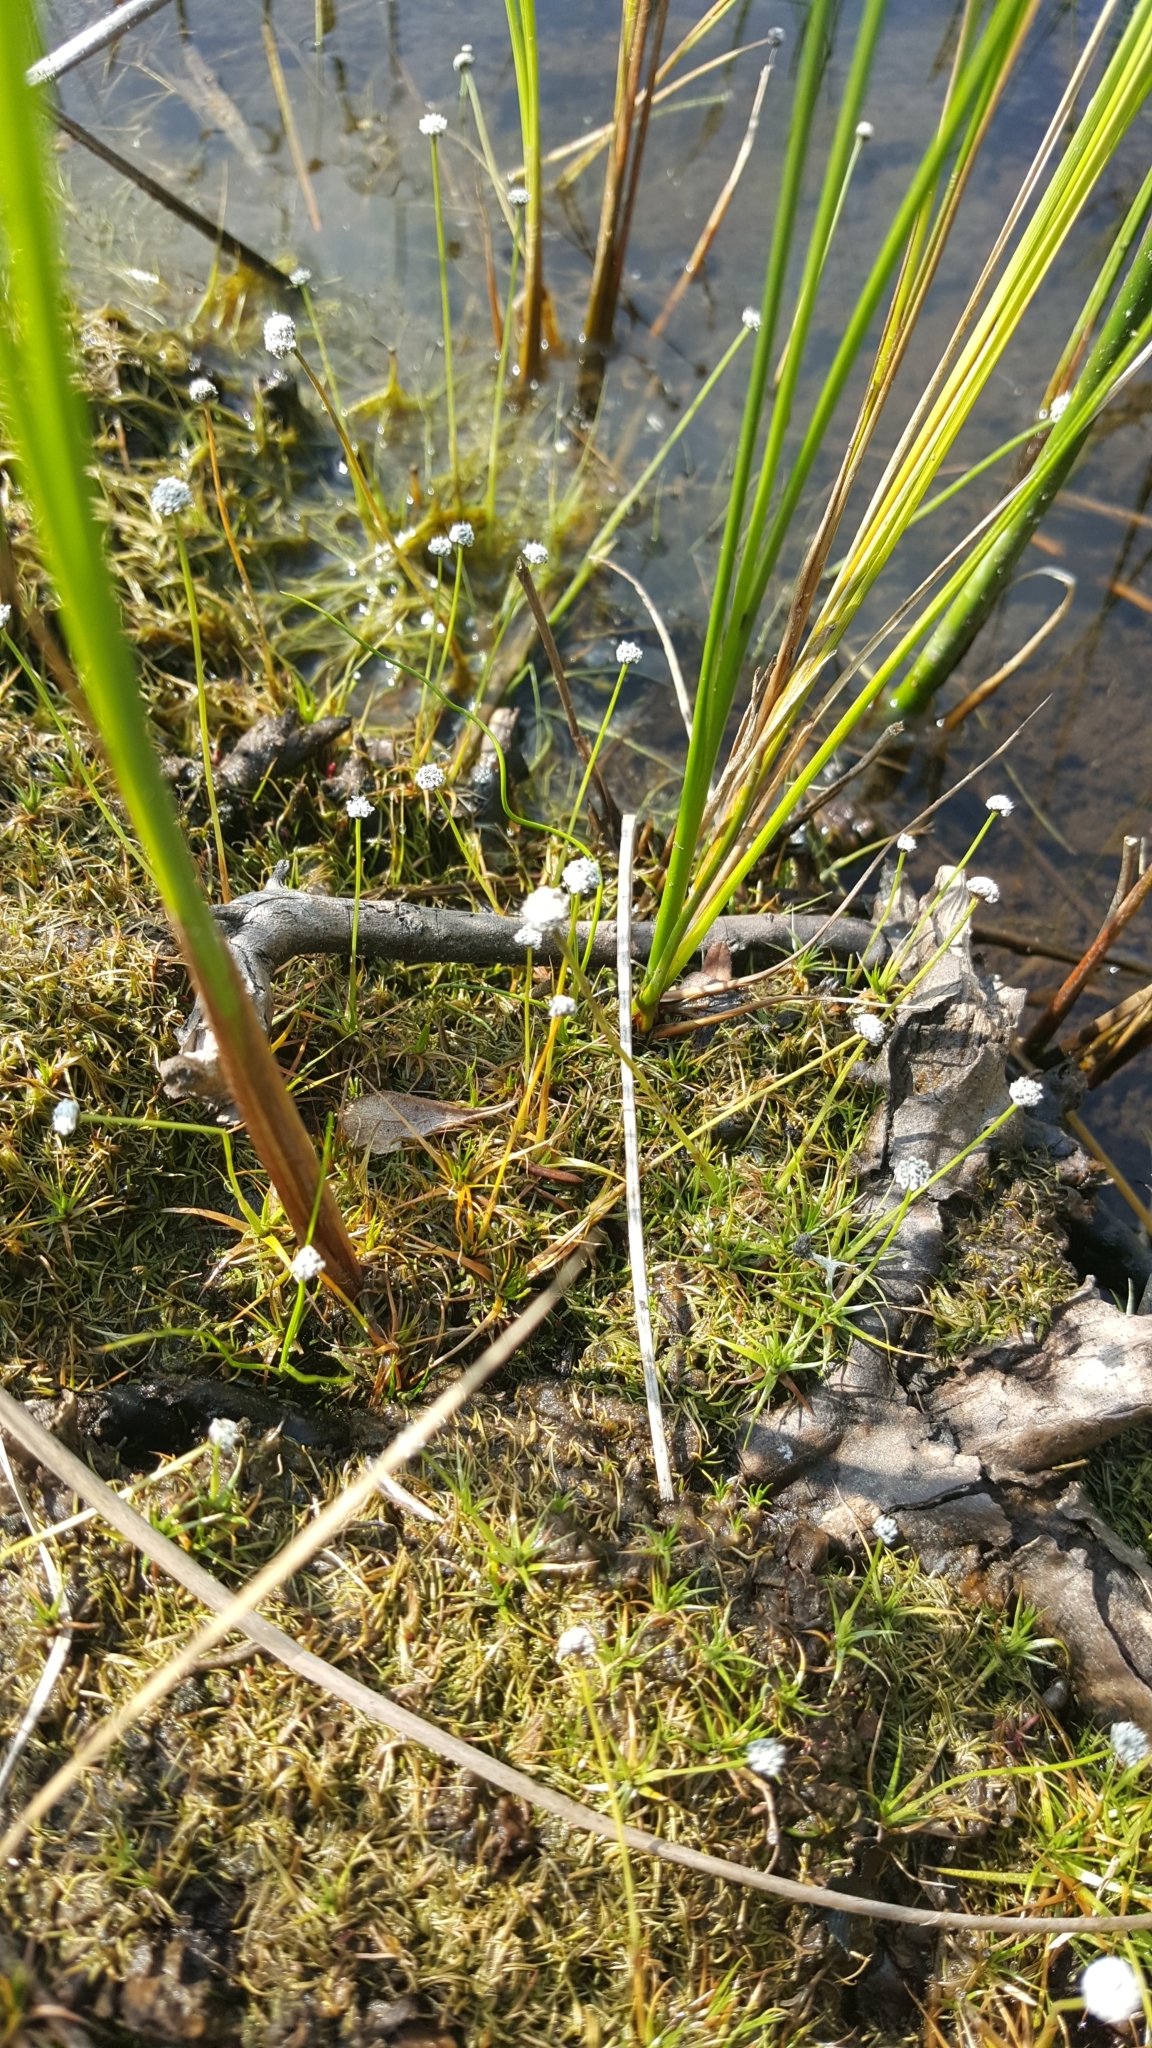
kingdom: Plantae
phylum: Tracheophyta
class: Liliopsida
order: Poales
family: Eriocaulaceae
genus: Eriocaulon
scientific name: Eriocaulon aquaticum
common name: Pipewort
